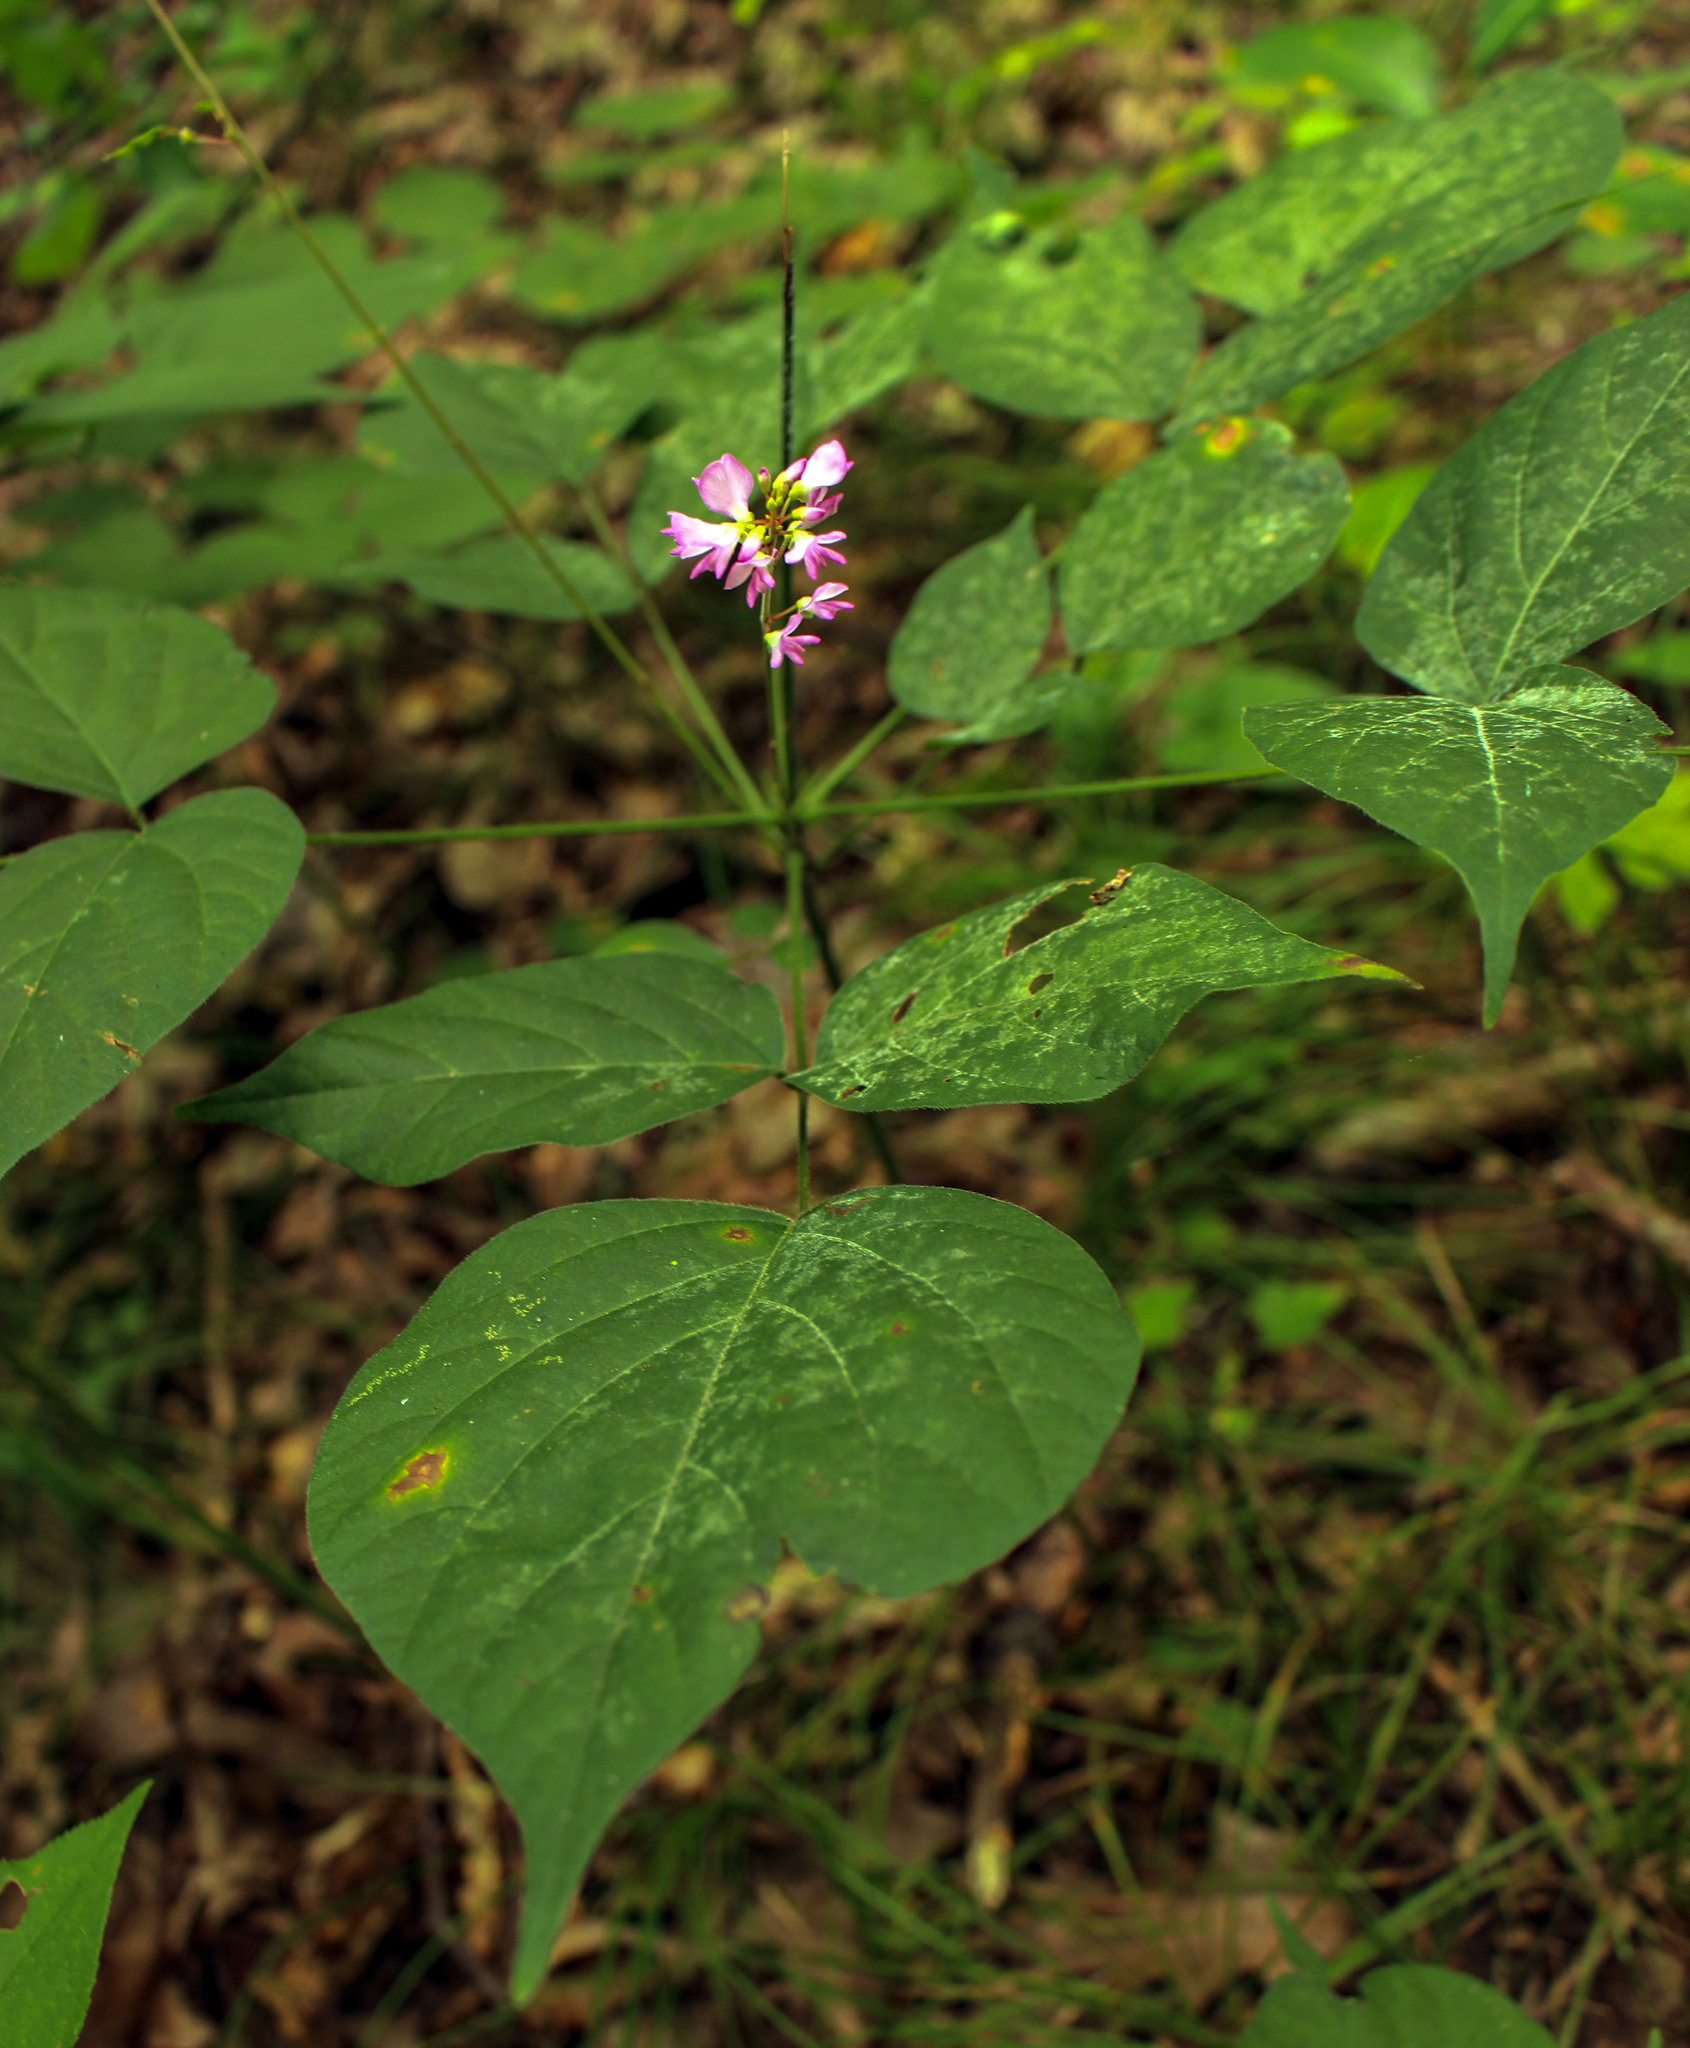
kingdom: Plantae
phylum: Tracheophyta
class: Magnoliopsida
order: Fabales
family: Fabaceae
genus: Hylodesmum
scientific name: Hylodesmum glutinosum
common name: Clustered-leaved tick-trefoil
